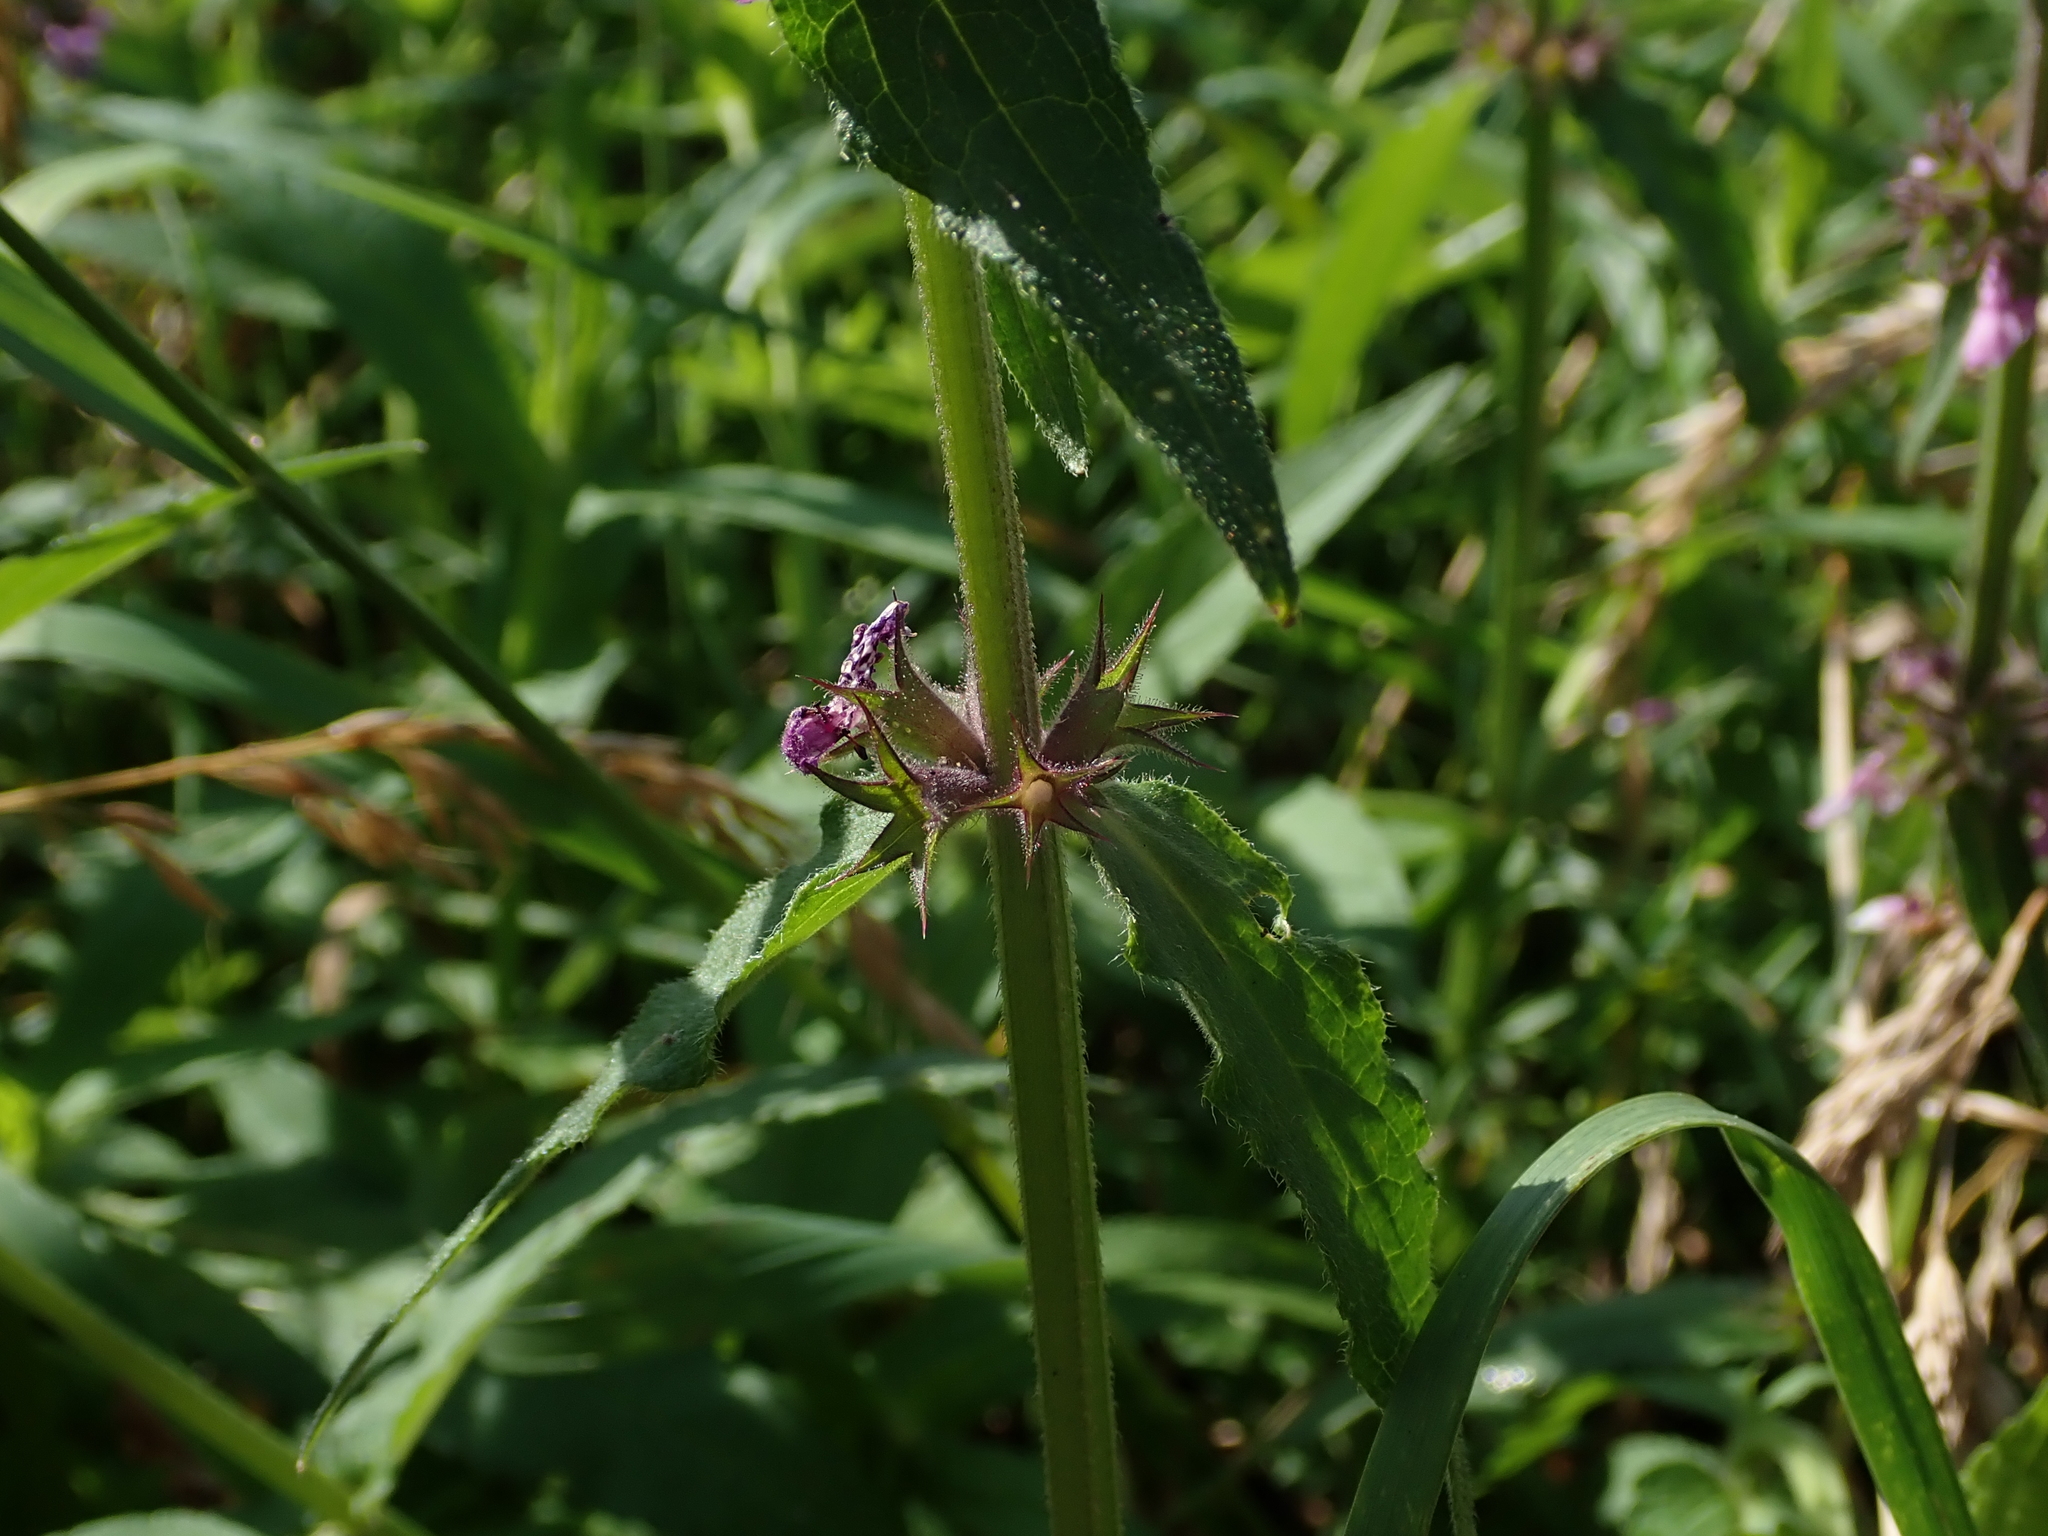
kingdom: Plantae
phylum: Tracheophyta
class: Magnoliopsida
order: Lamiales
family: Lamiaceae
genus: Stachys
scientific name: Stachys palustris
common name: Marsh woundwort
